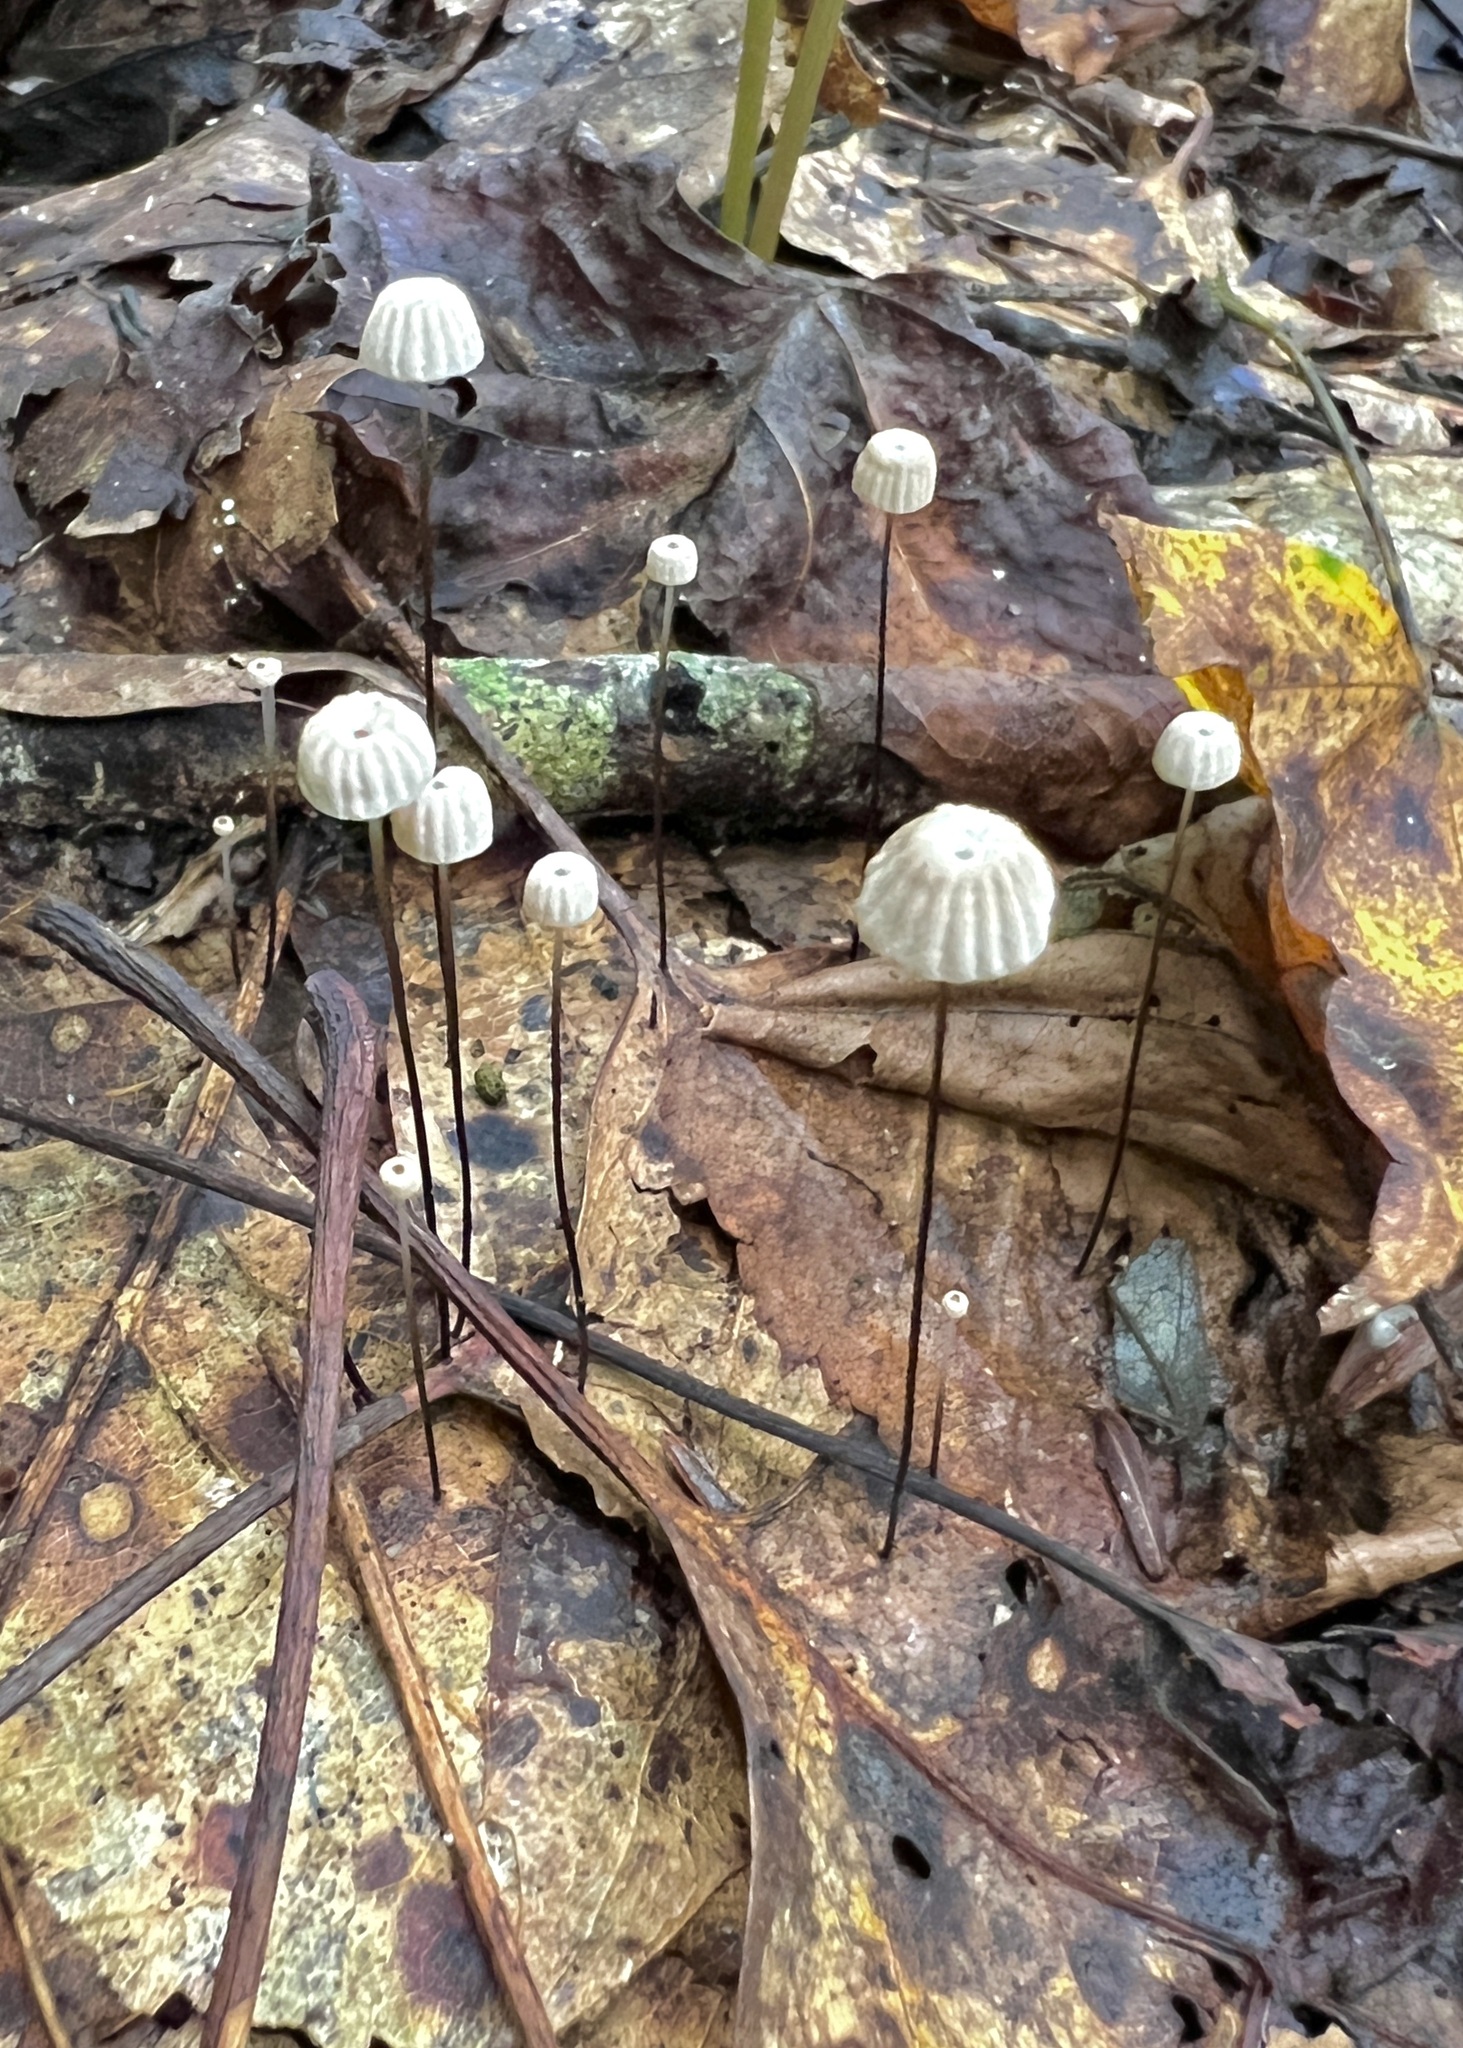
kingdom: Fungi
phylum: Basidiomycota
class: Agaricomycetes
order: Agaricales
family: Marasmiaceae
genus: Marasmius
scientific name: Marasmius capillaris
